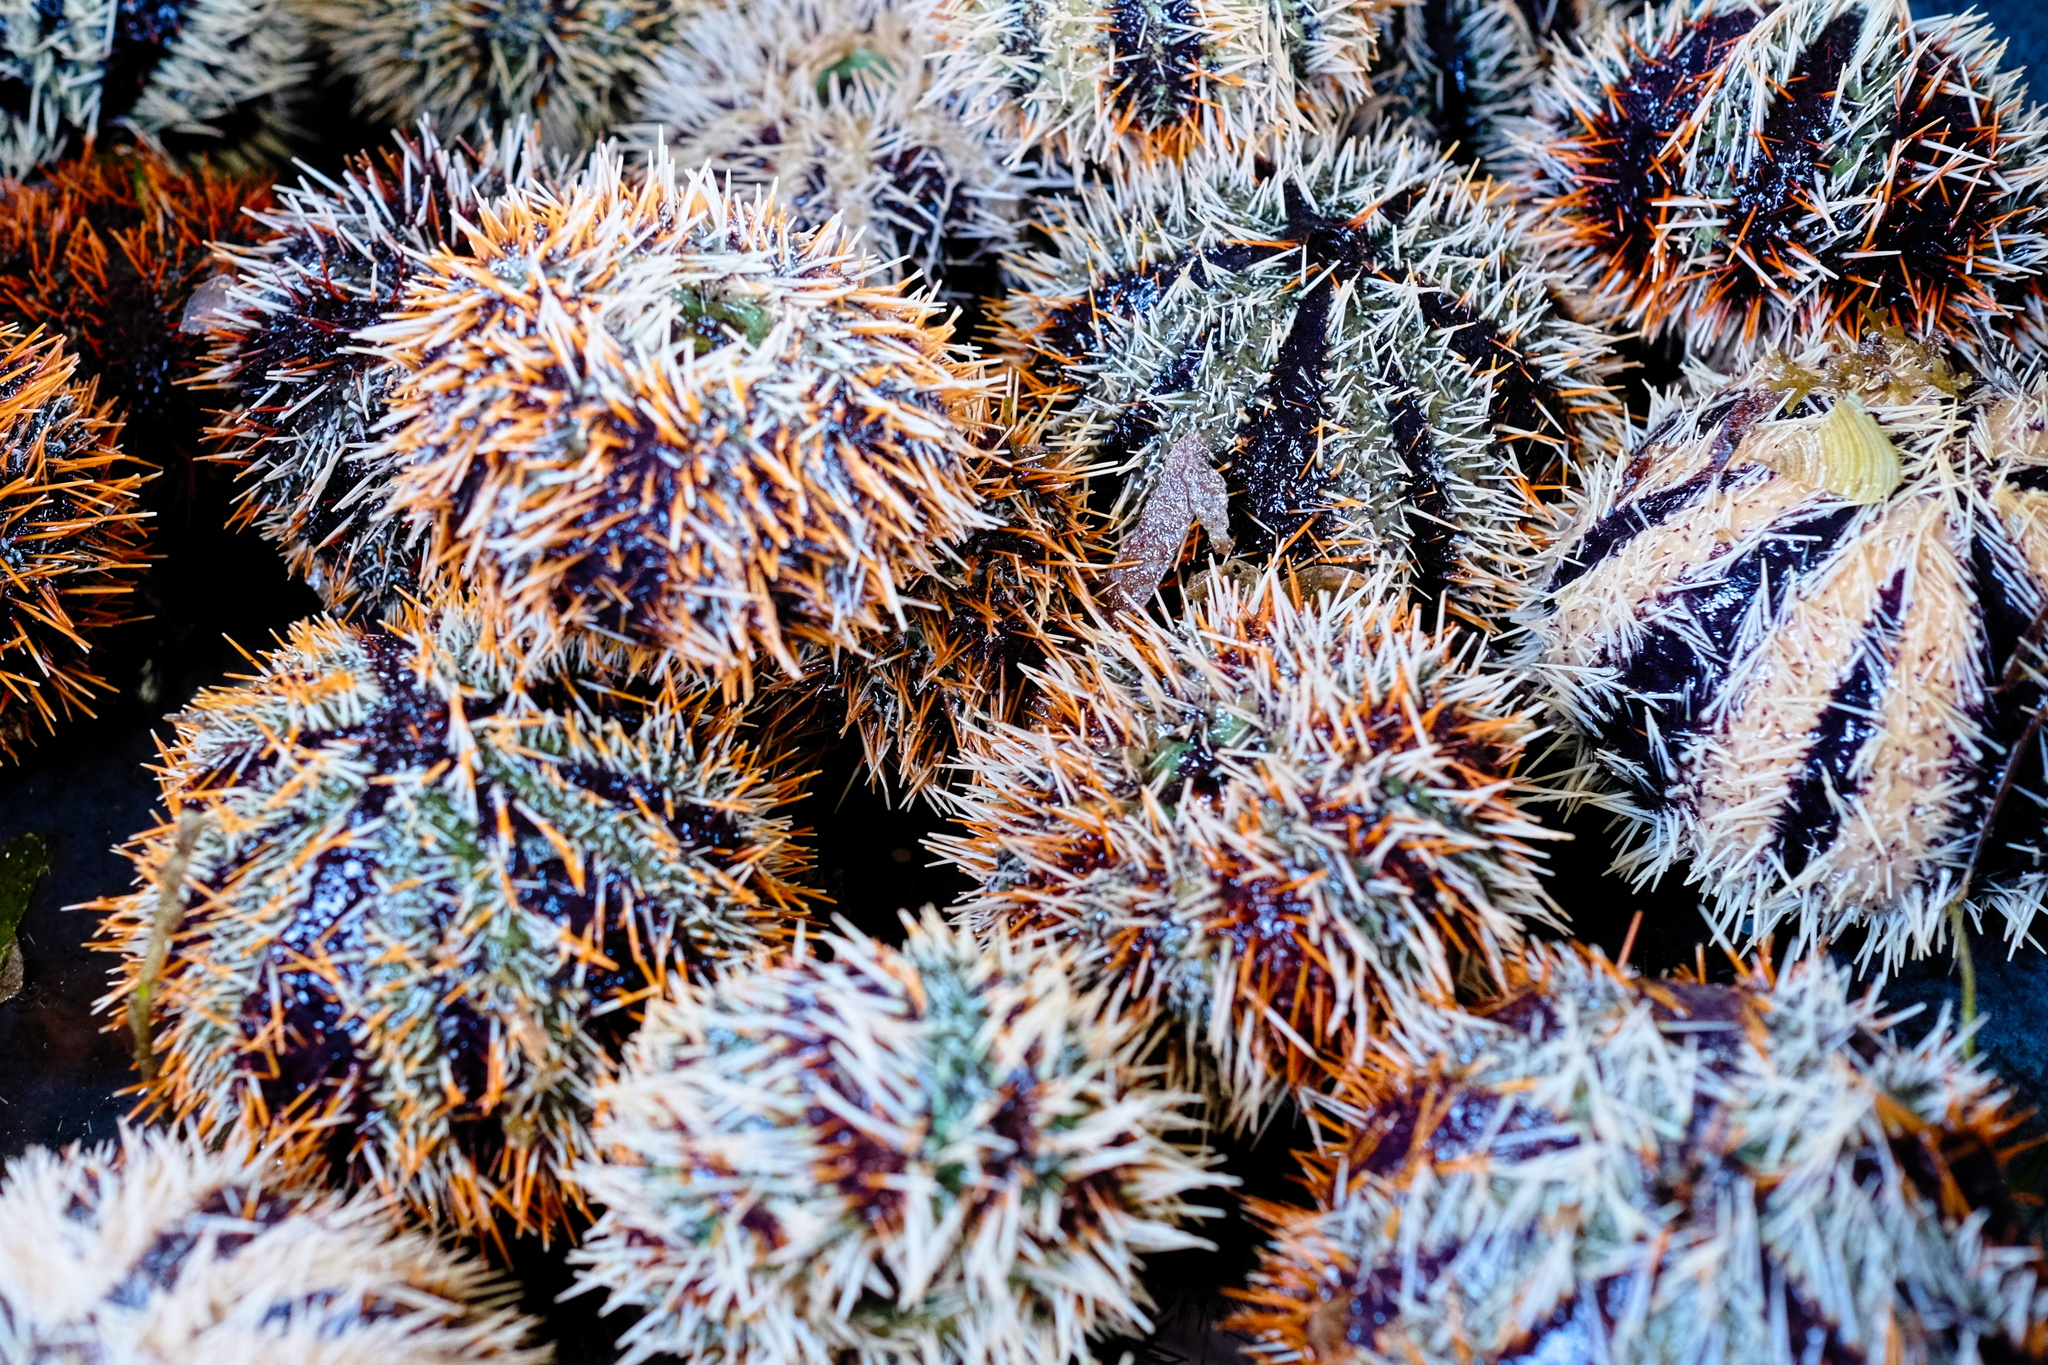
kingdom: Animalia
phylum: Echinodermata
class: Echinoidea
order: Camarodonta
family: Toxopneustidae
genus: Tripneustes
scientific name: Tripneustes gratilla
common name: Bischofsmützenseeigel
